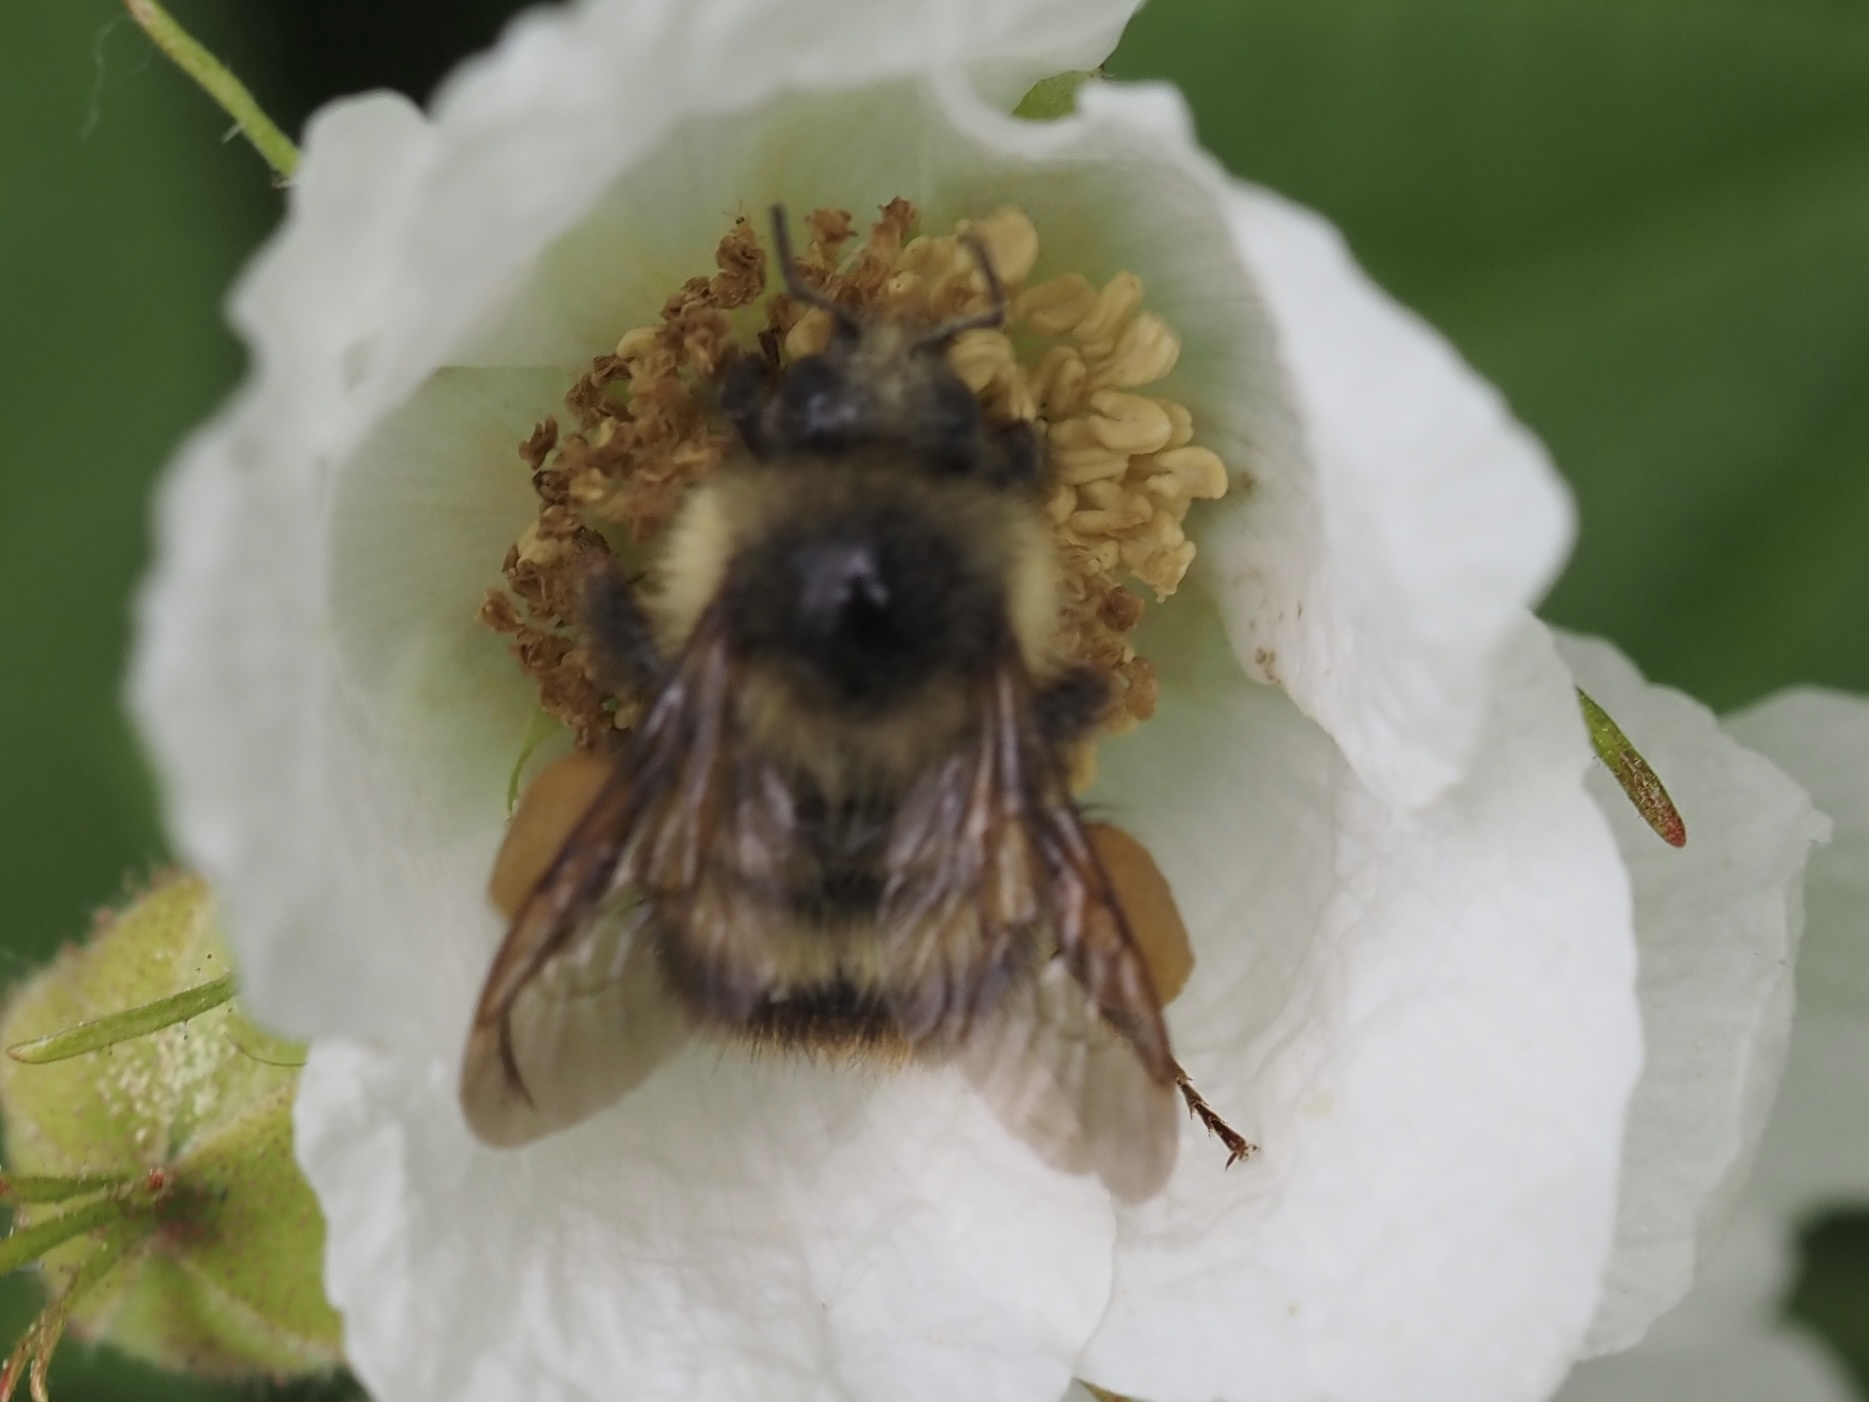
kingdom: Animalia
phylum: Arthropoda
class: Insecta
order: Hymenoptera
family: Apidae
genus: Bombus
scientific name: Bombus mixtus
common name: Fuzzy-horned bumble bee
